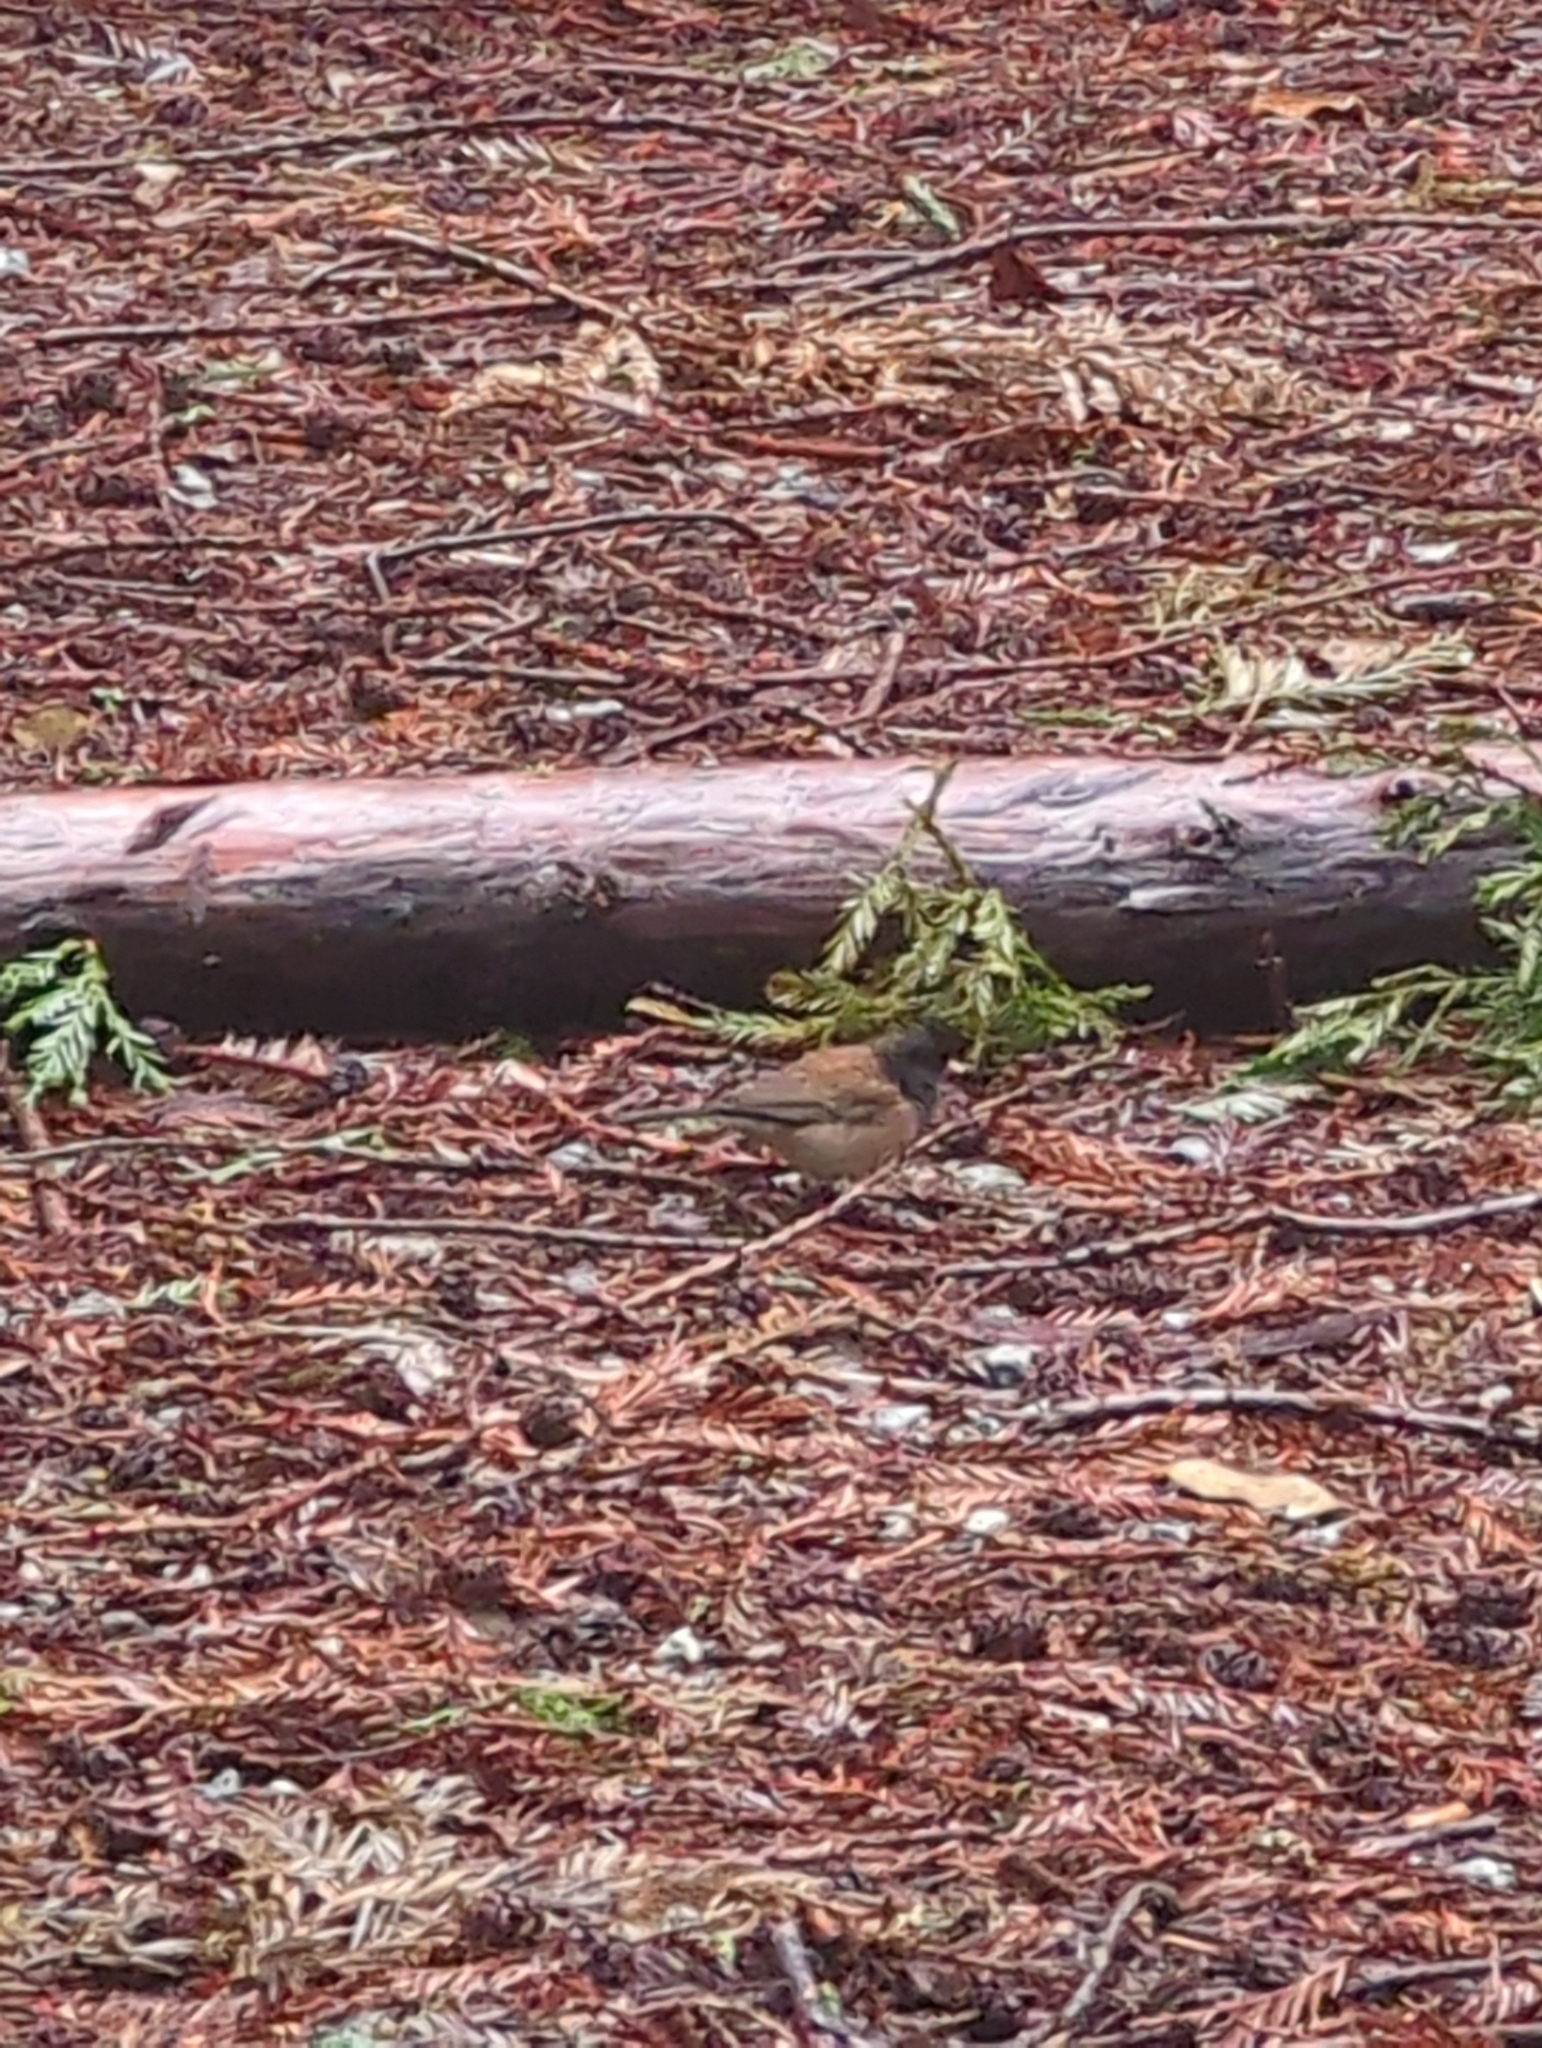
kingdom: Animalia
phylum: Chordata
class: Aves
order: Passeriformes
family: Passerellidae
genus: Junco
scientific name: Junco hyemalis
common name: Dark-eyed junco
